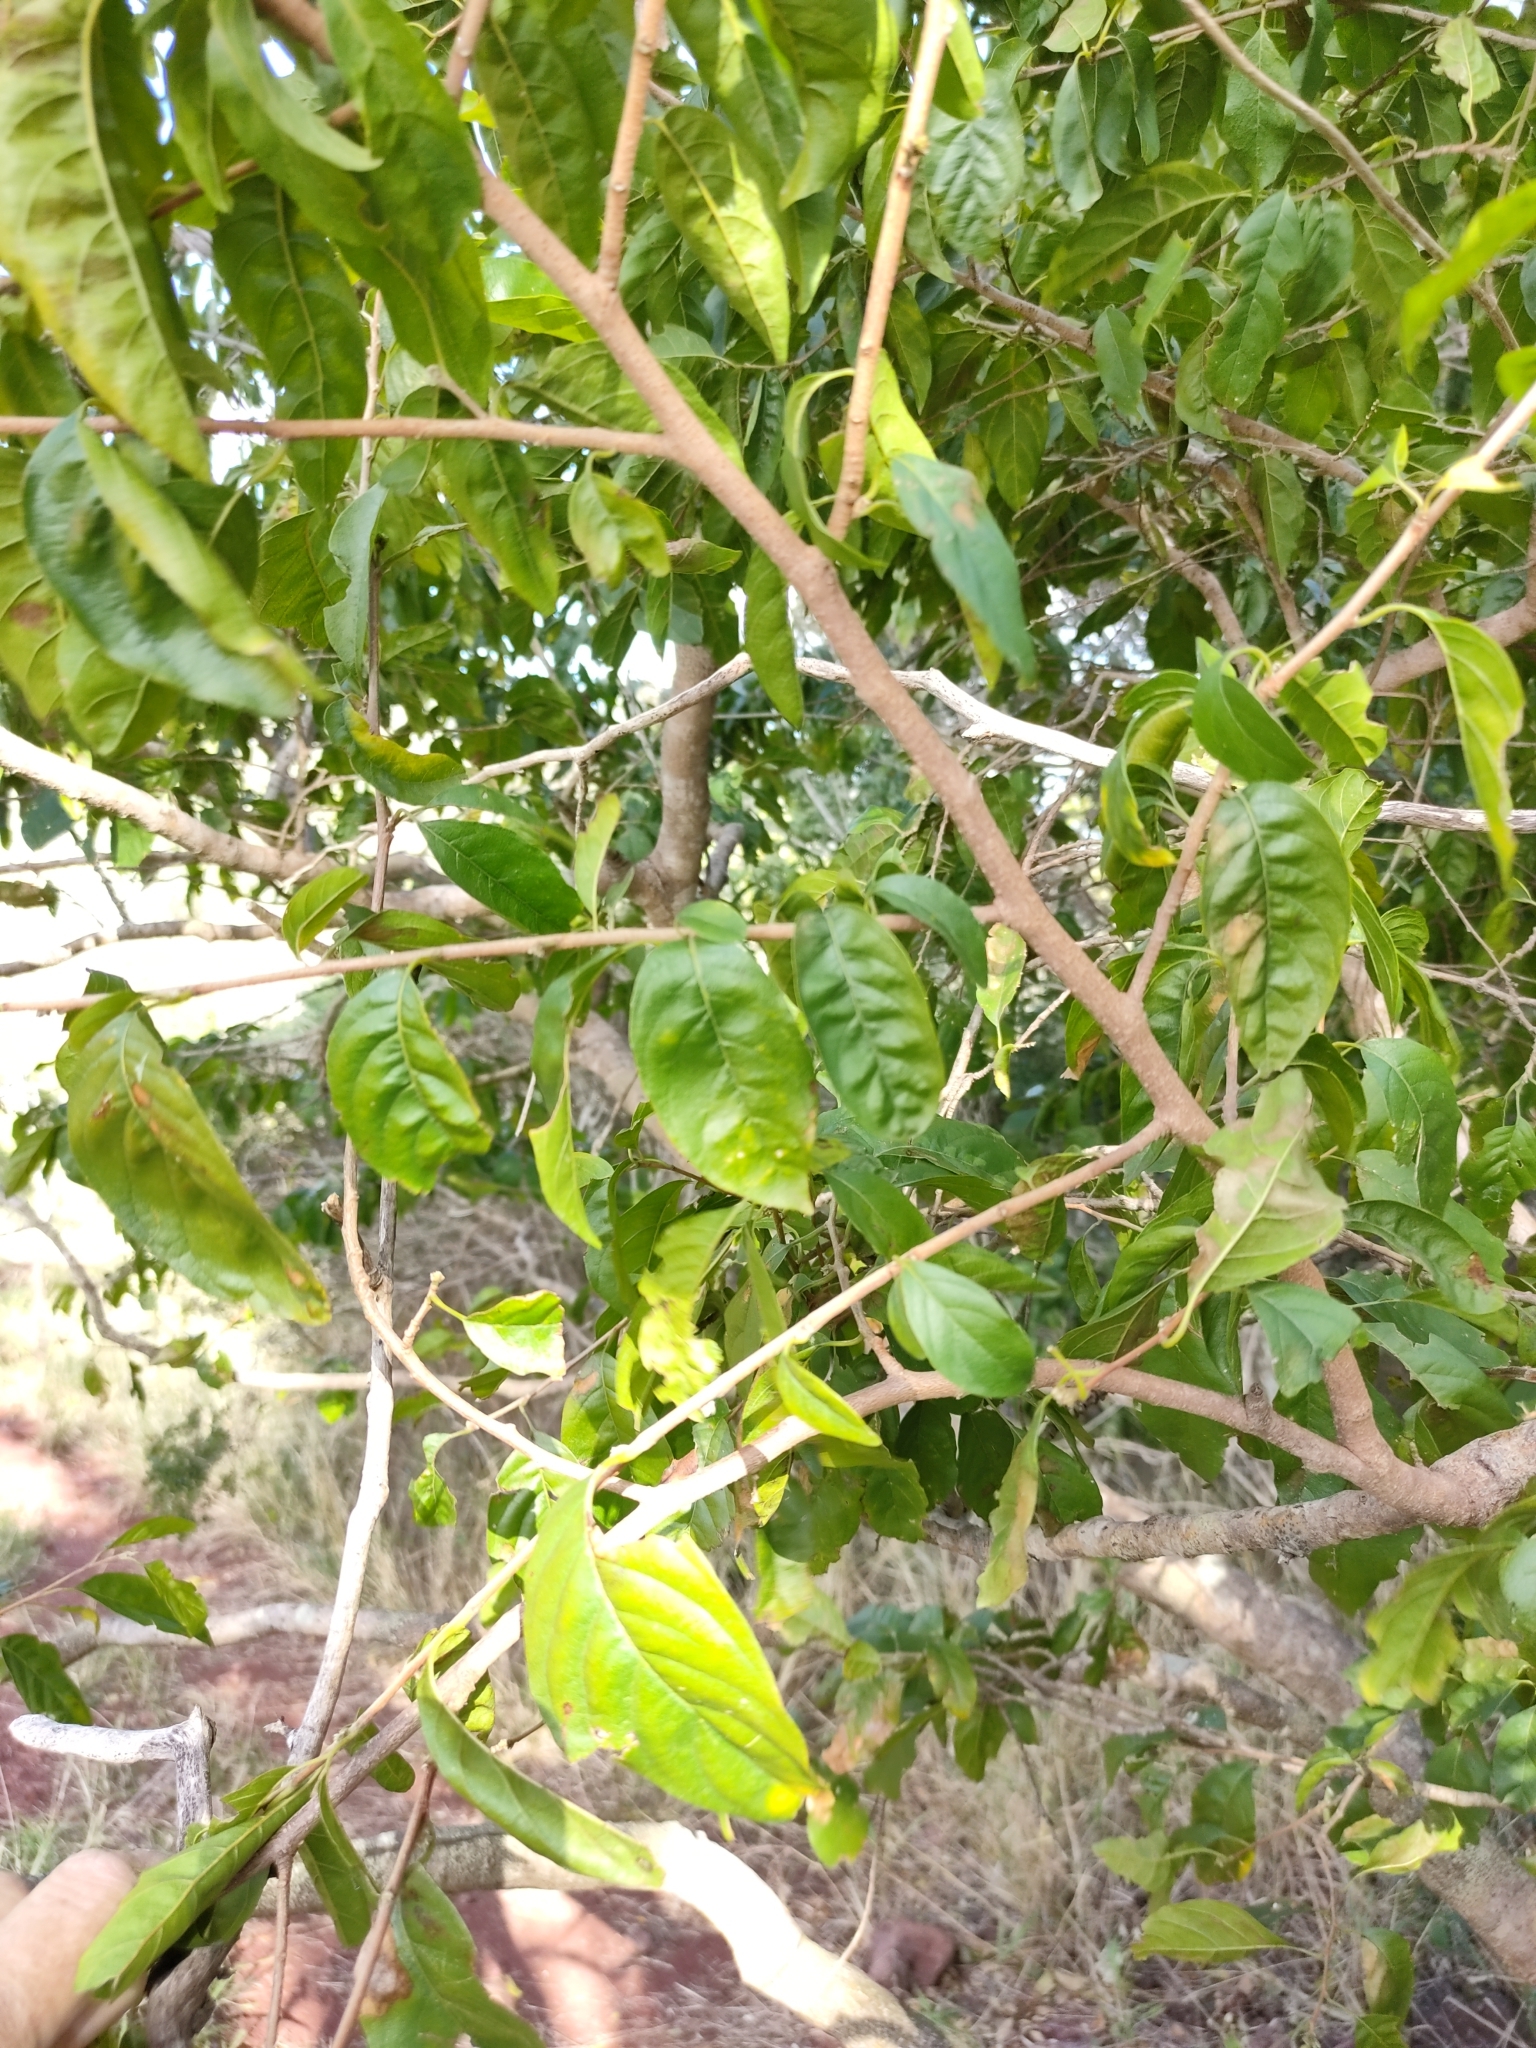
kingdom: Plantae
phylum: Tracheophyta
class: Magnoliopsida
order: Sapindales
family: Meliaceae
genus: Turraea
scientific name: Turraea pubescens
